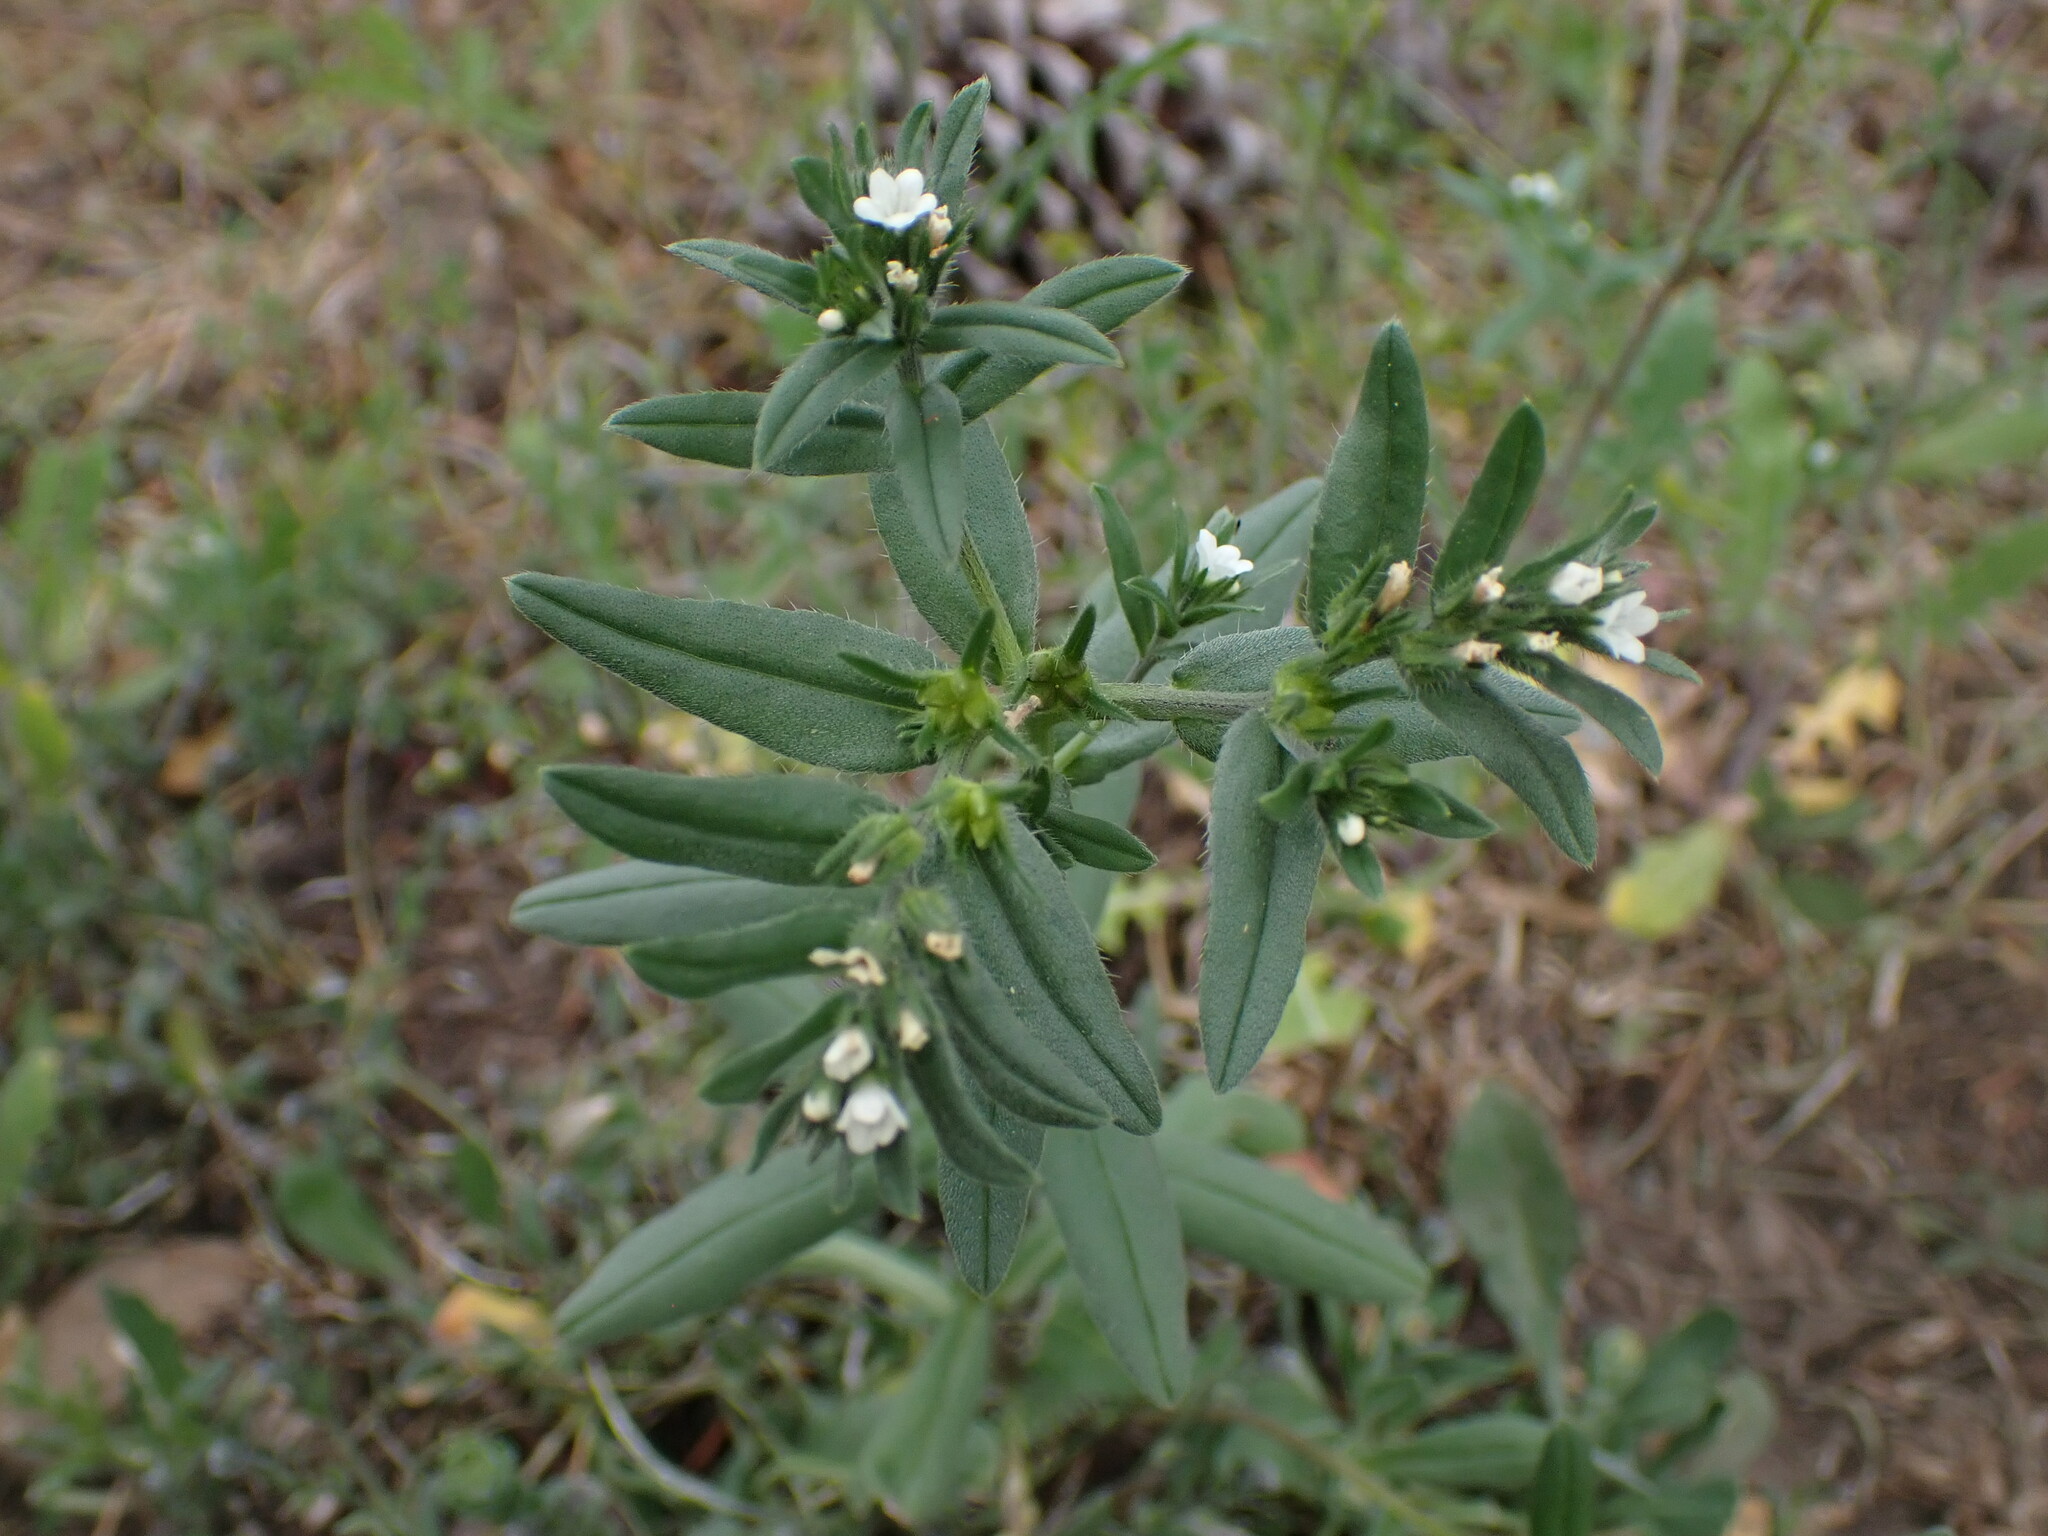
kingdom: Plantae
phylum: Tracheophyta
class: Magnoliopsida
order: Boraginales
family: Boraginaceae
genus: Buglossoides
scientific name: Buglossoides arvensis
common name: Corn gromwell
